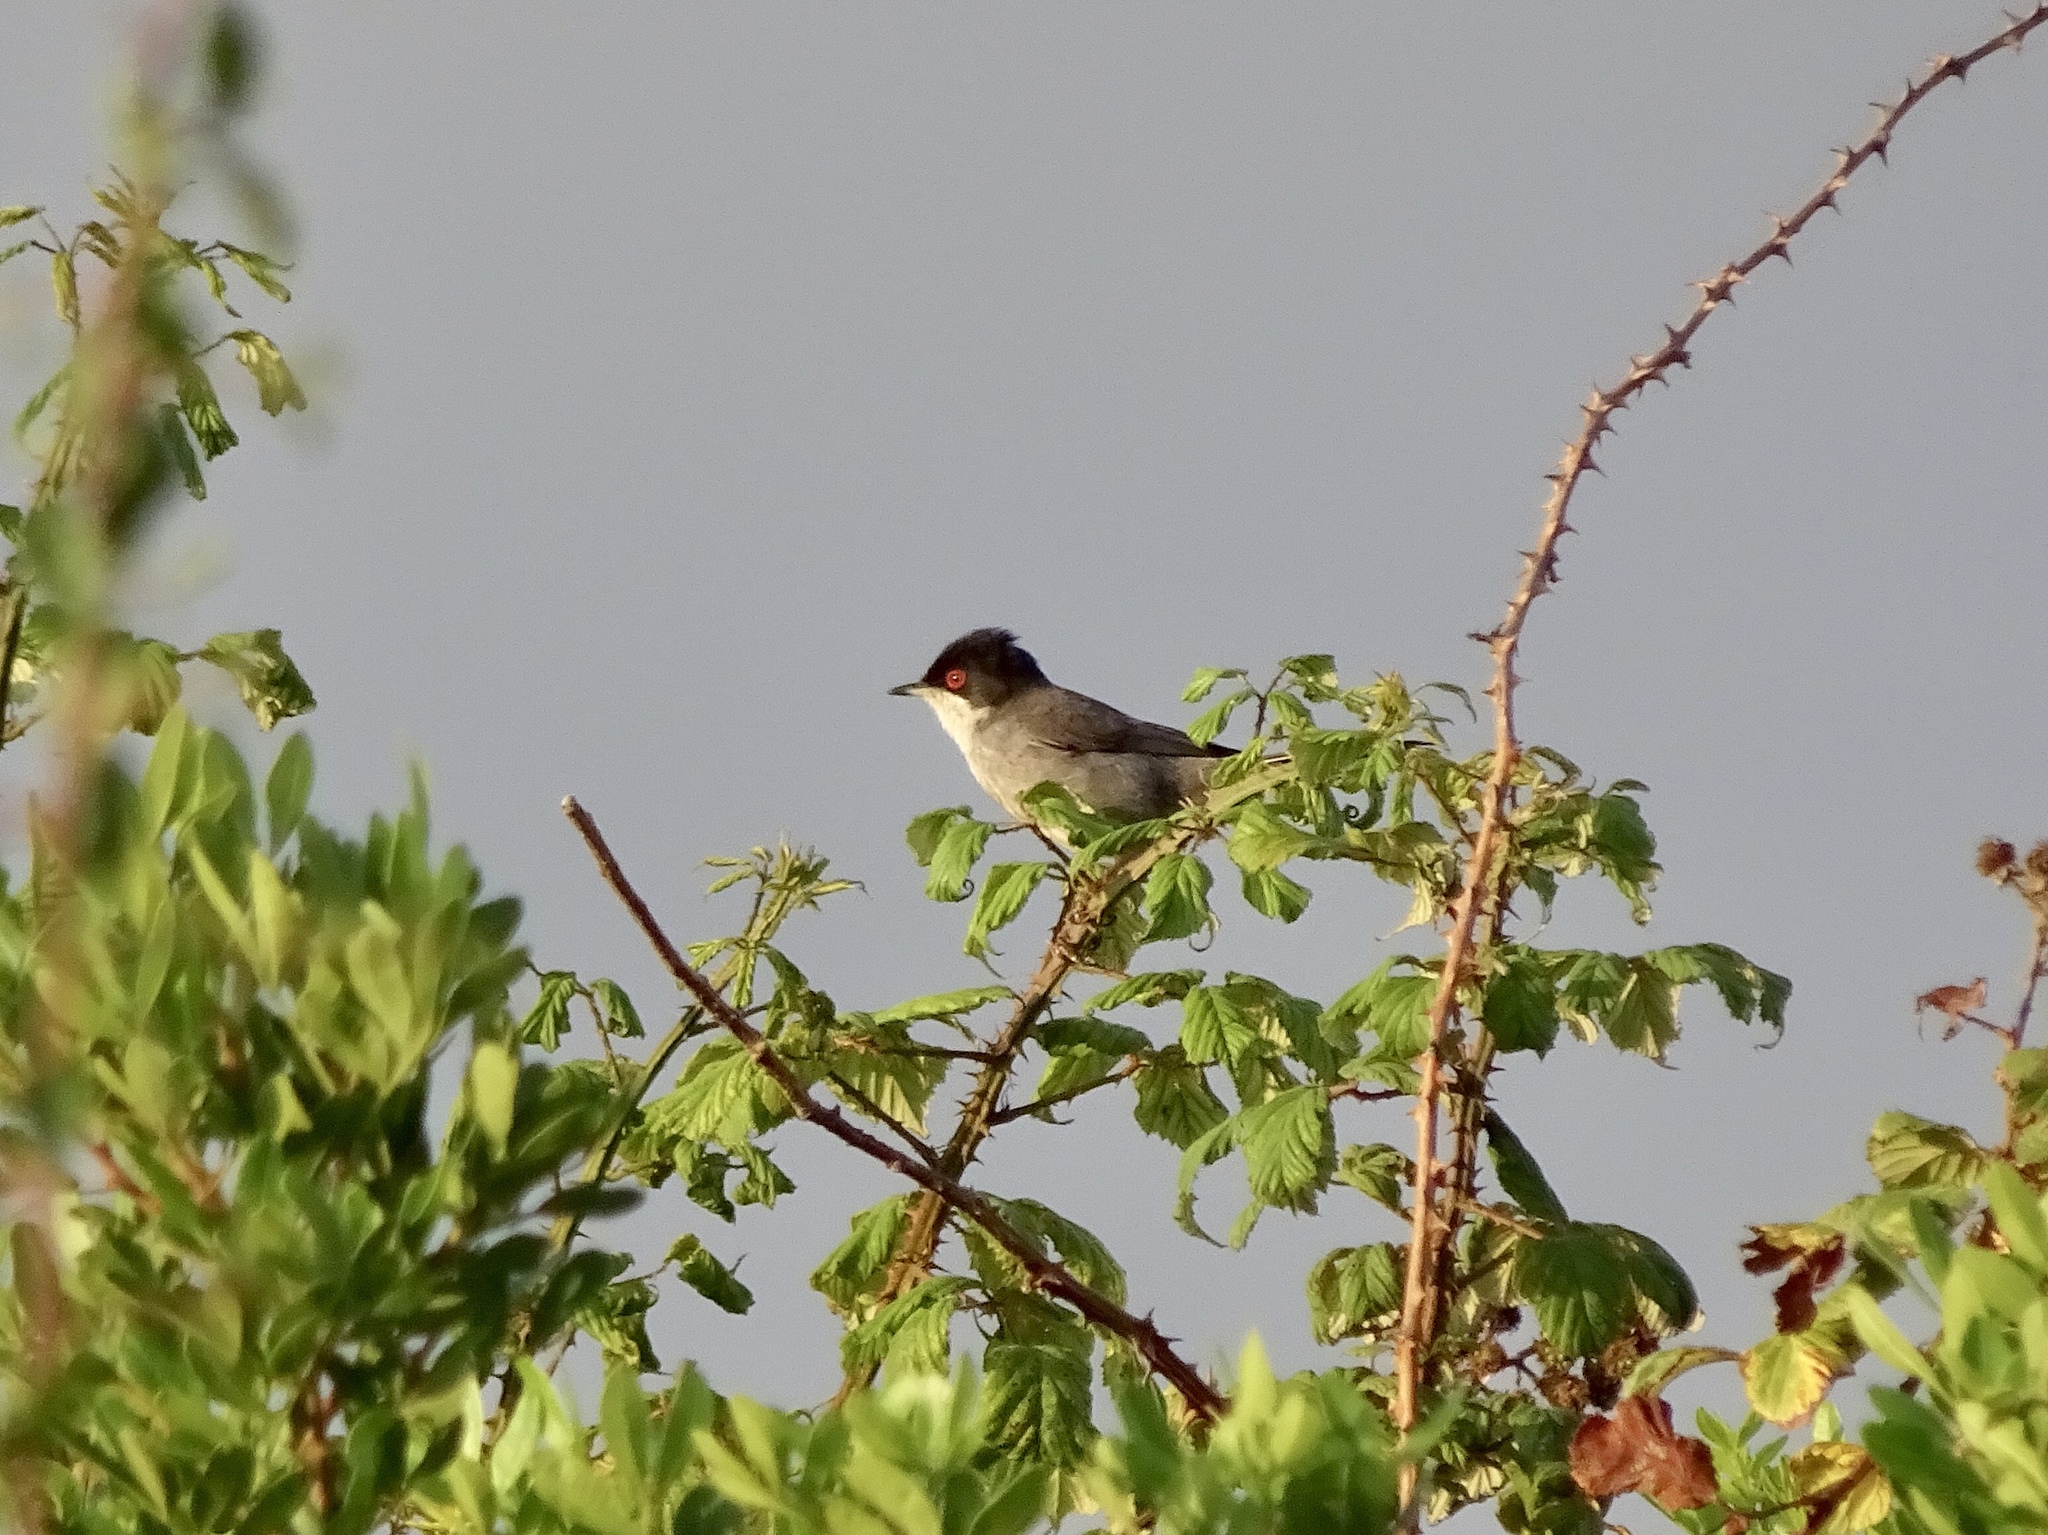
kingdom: Animalia
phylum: Chordata
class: Aves
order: Passeriformes
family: Sylviidae
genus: Curruca
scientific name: Curruca melanocephala
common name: Sardinian warbler
